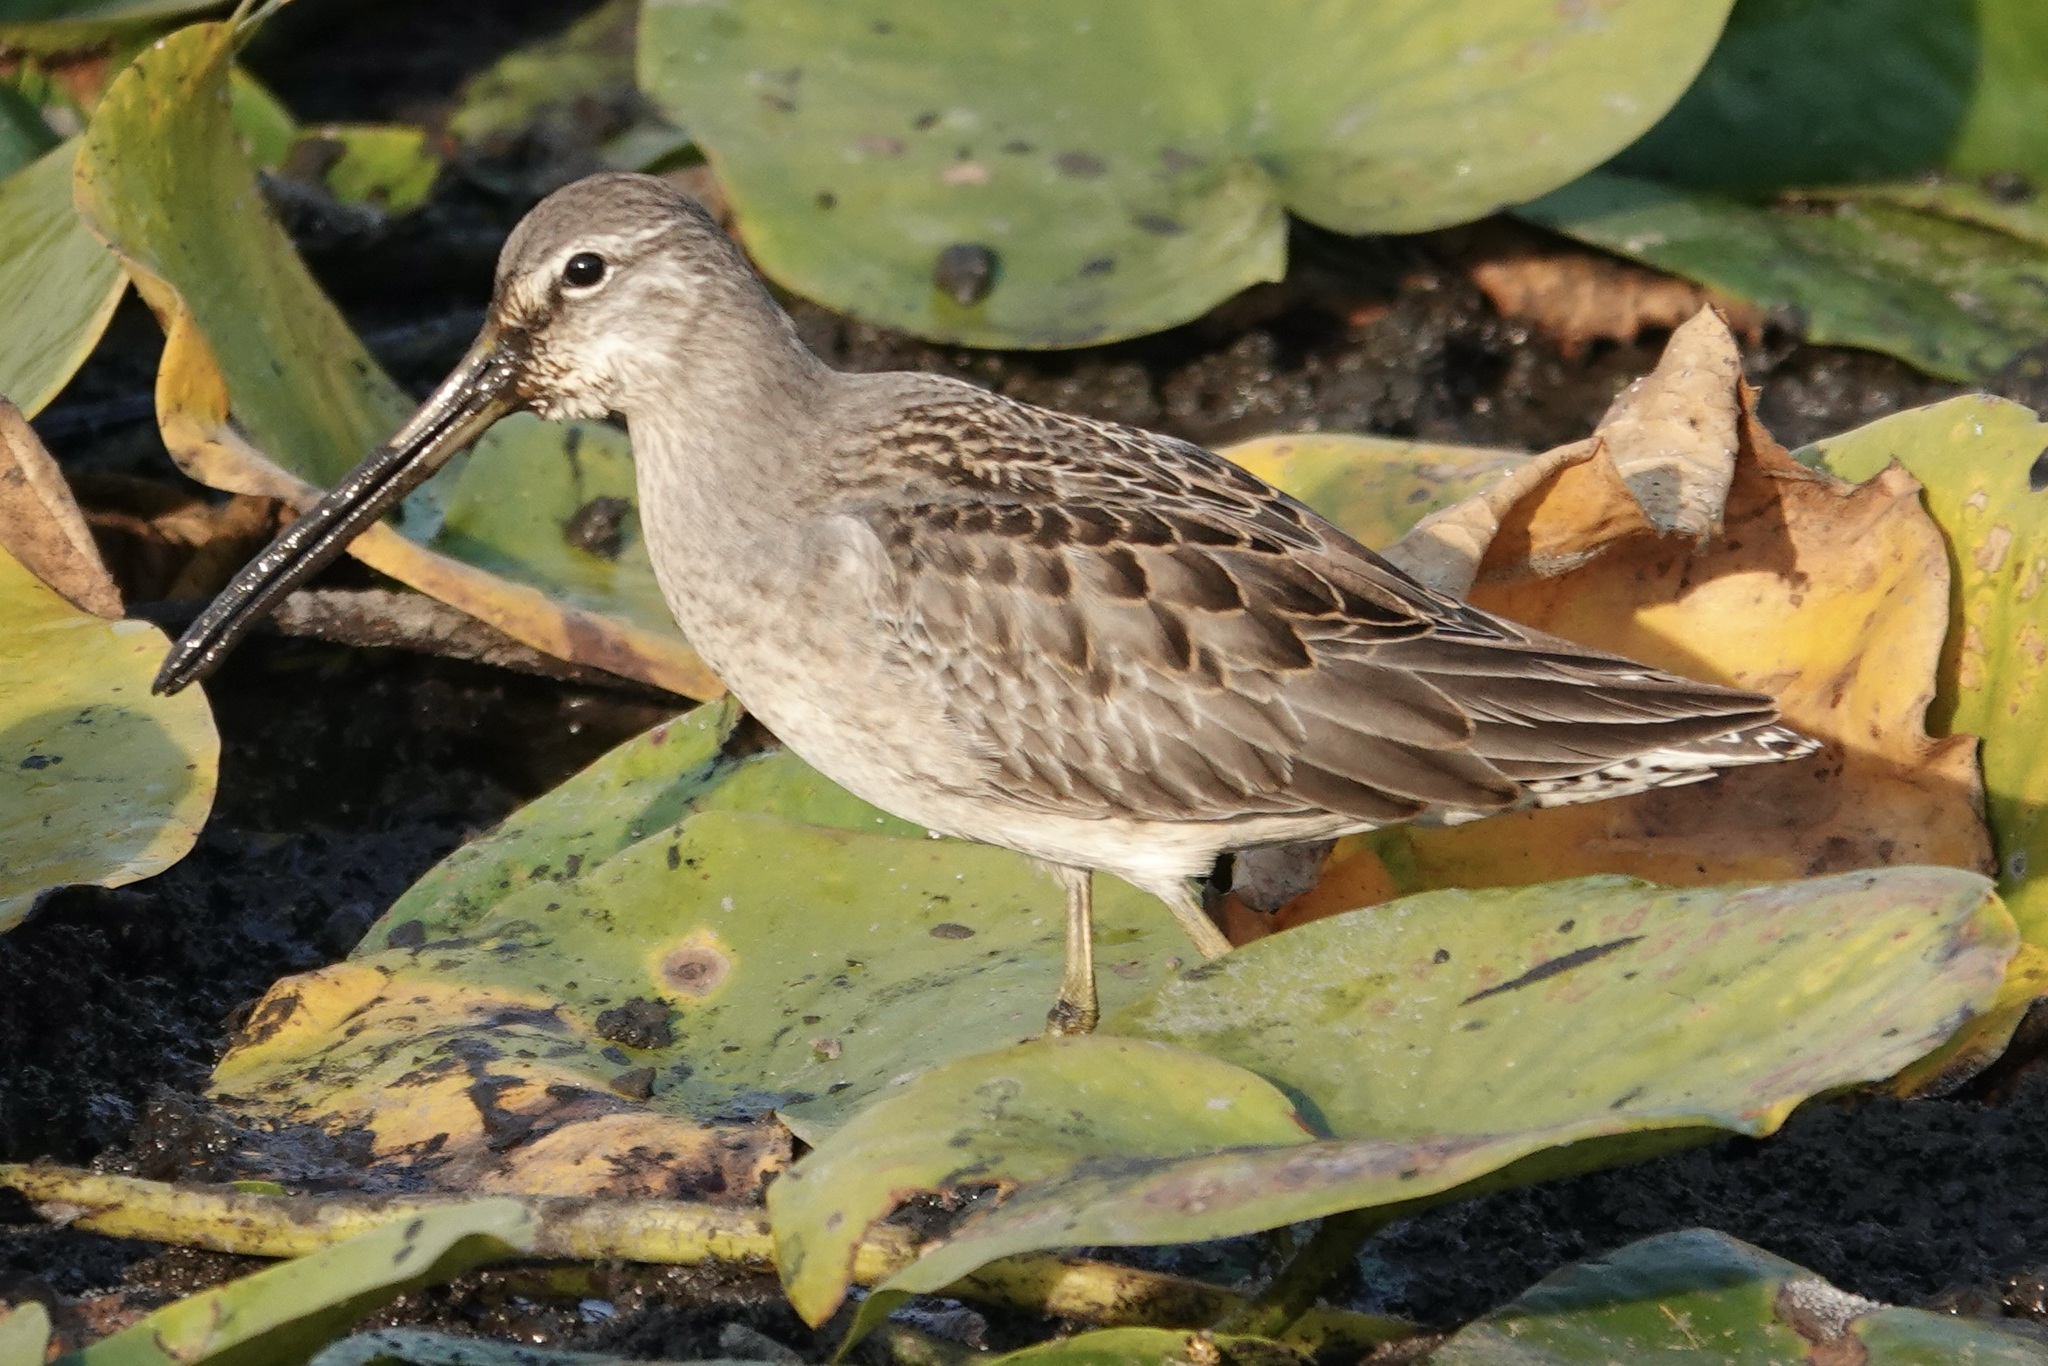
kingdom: Animalia
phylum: Chordata
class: Aves
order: Charadriiformes
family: Scolopacidae
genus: Limnodromus
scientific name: Limnodromus scolopaceus
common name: Long-billed dowitcher
